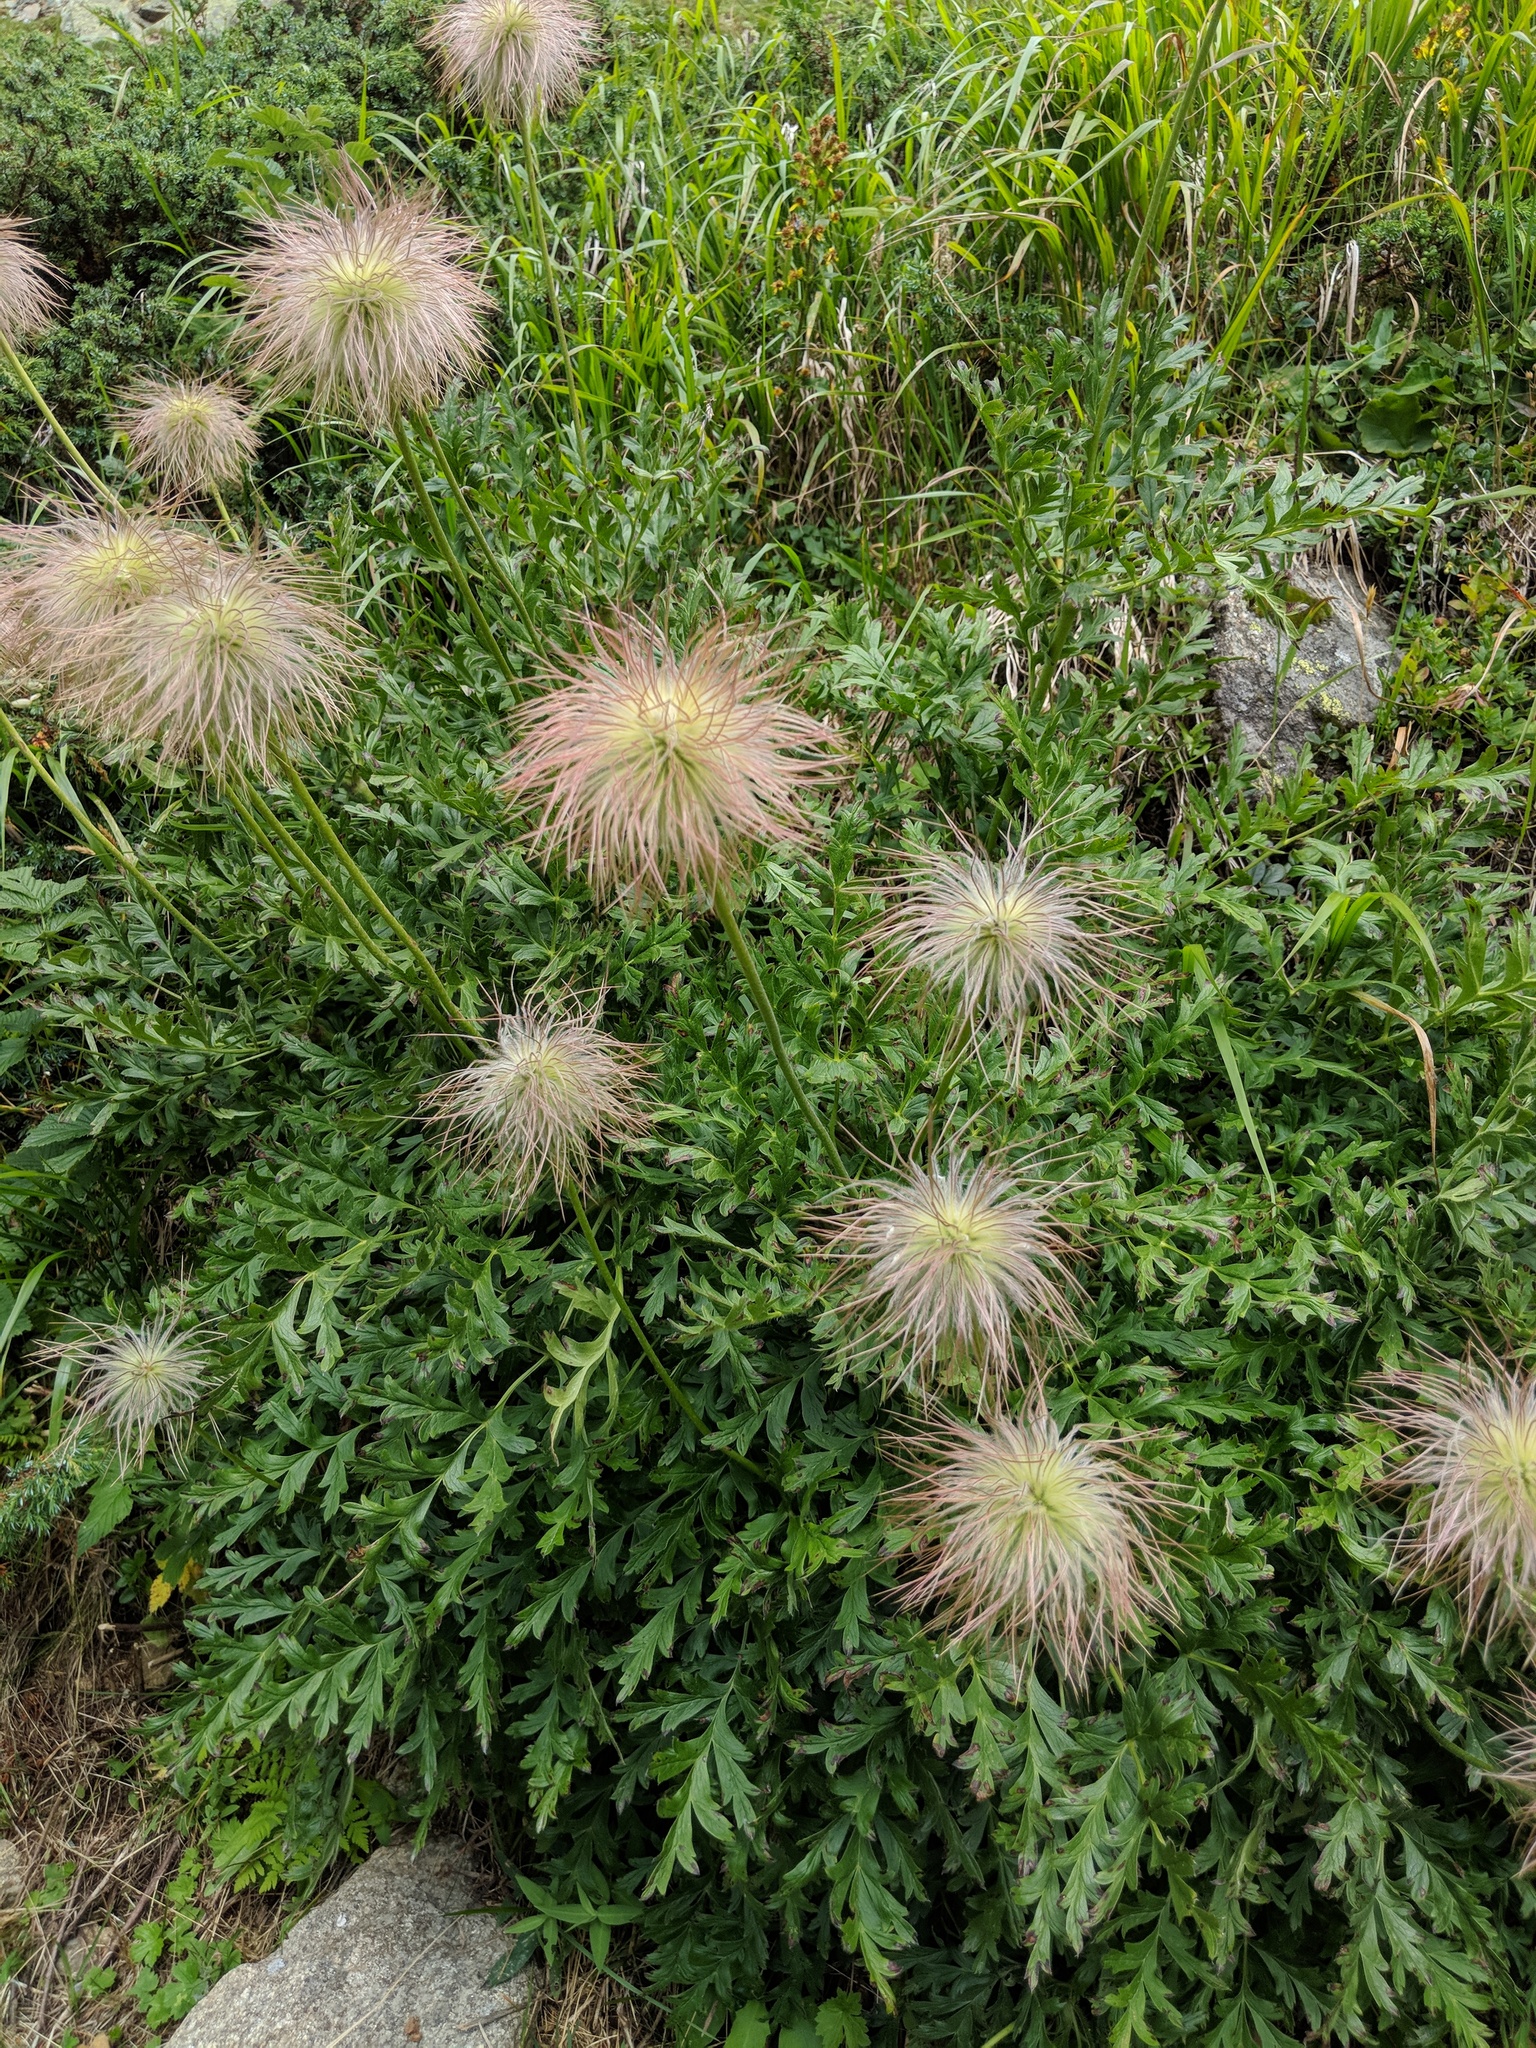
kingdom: Plantae
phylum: Tracheophyta
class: Magnoliopsida
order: Ranunculales
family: Ranunculaceae
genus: Pulsatilla
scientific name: Pulsatilla alpina
